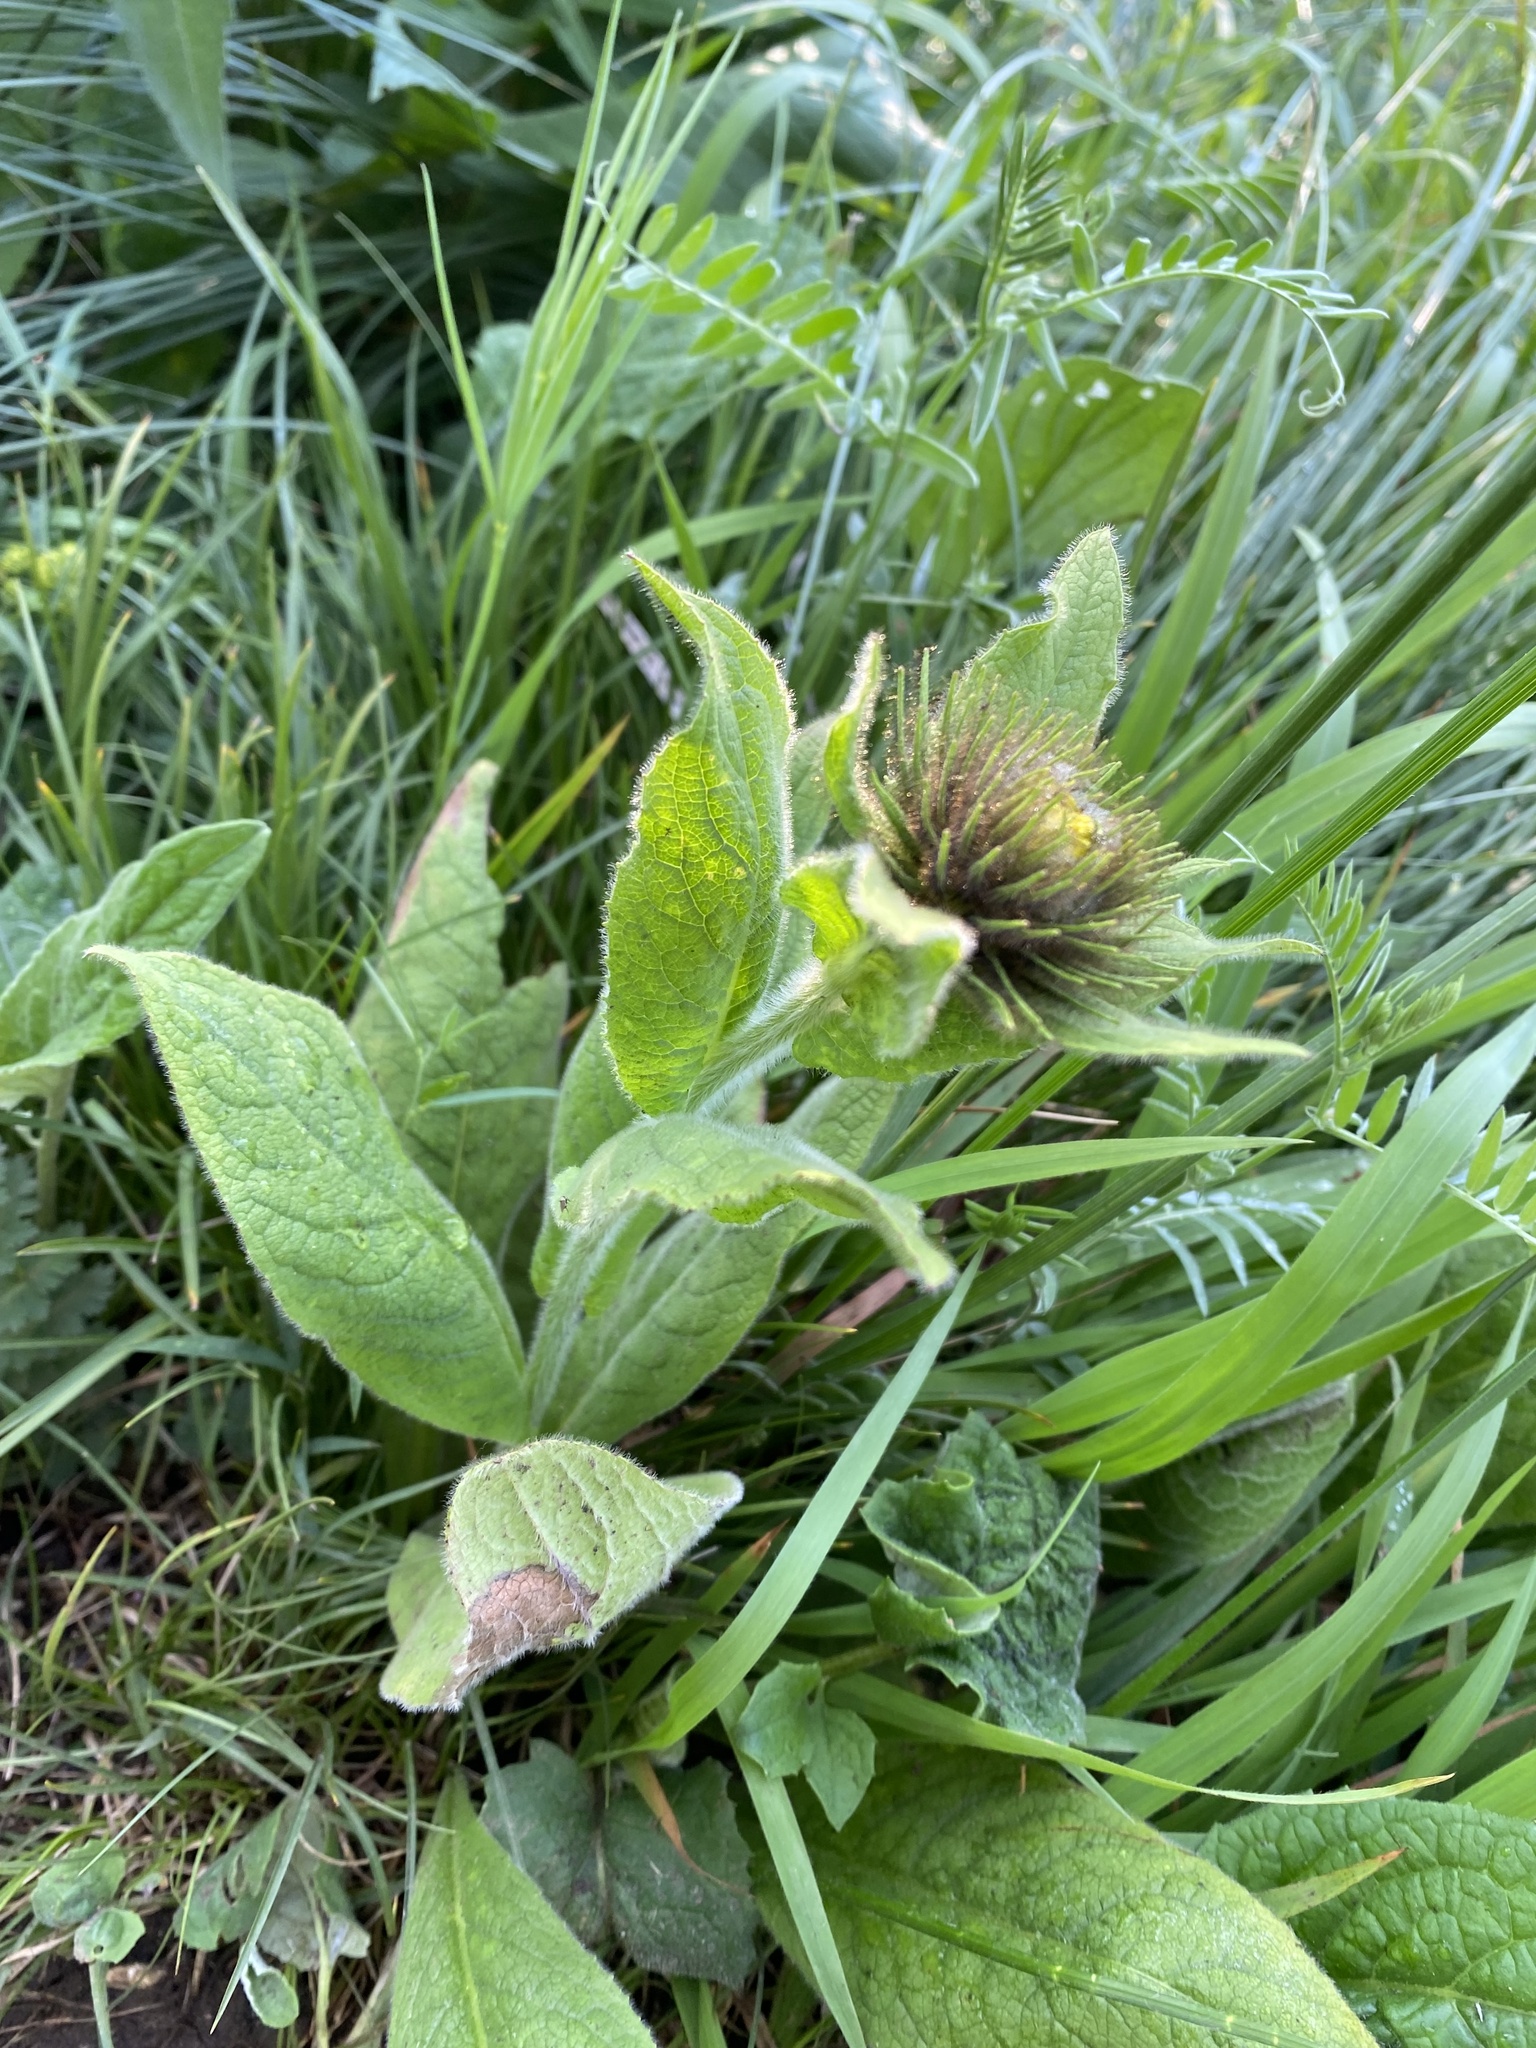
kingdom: Plantae
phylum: Tracheophyta
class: Magnoliopsida
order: Asterales
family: Asteraceae
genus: Pentanema
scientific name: Pentanema orientale
